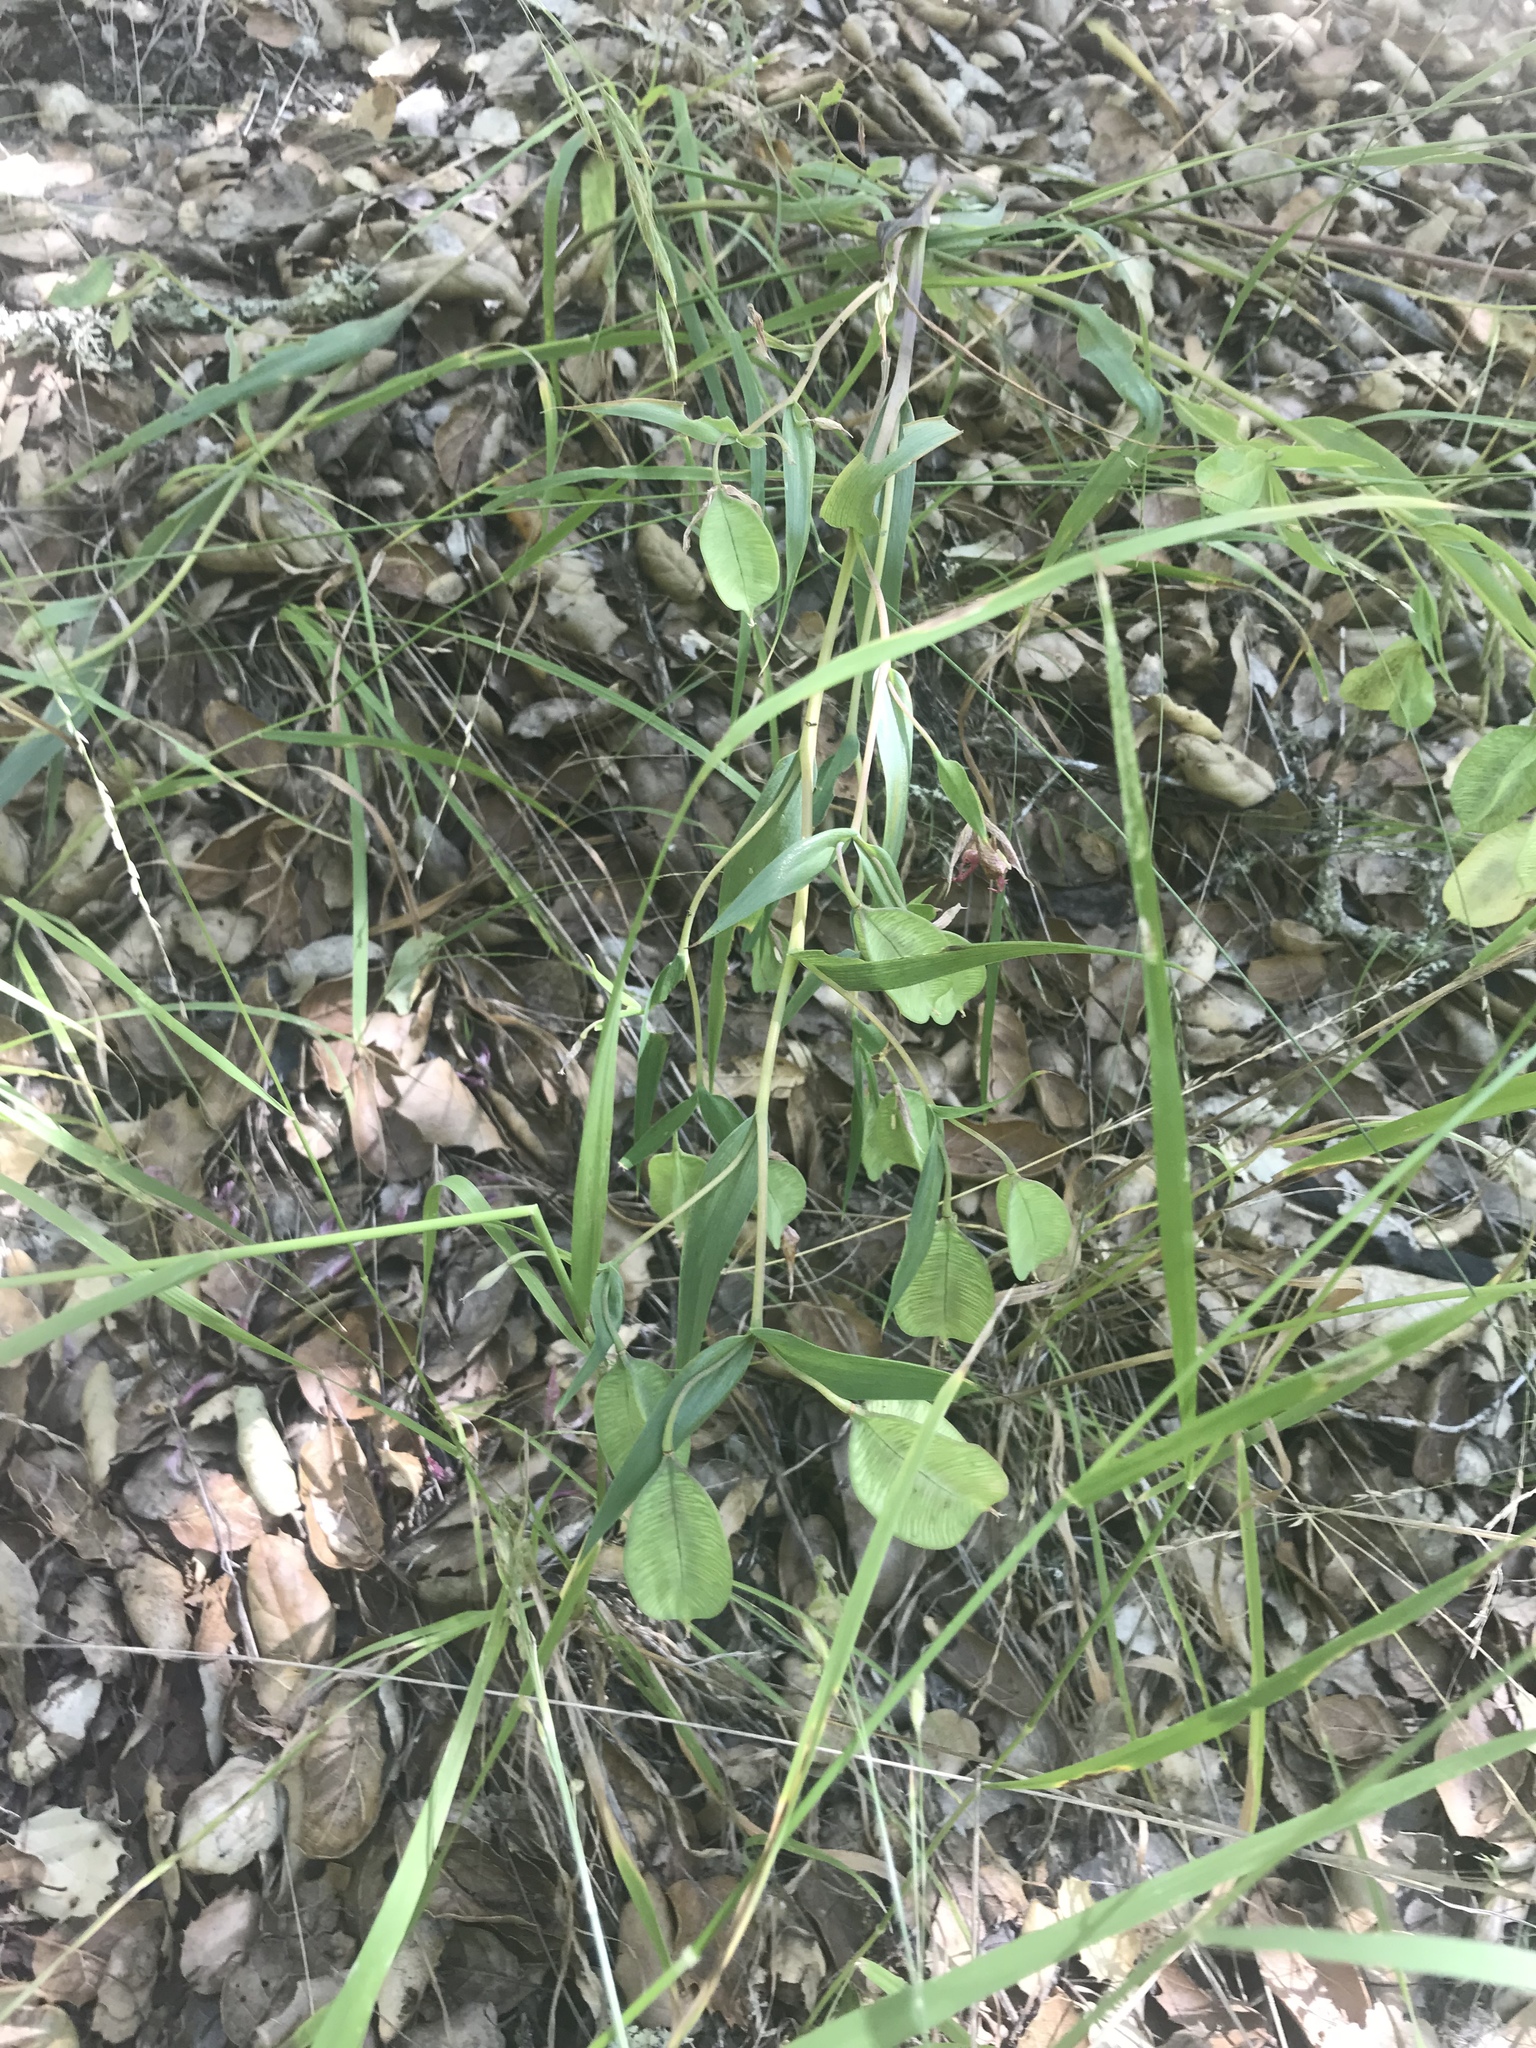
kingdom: Plantae
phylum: Tracheophyta
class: Liliopsida
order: Liliales
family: Liliaceae
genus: Calochortus
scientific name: Calochortus albus
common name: Fairy-lantern
